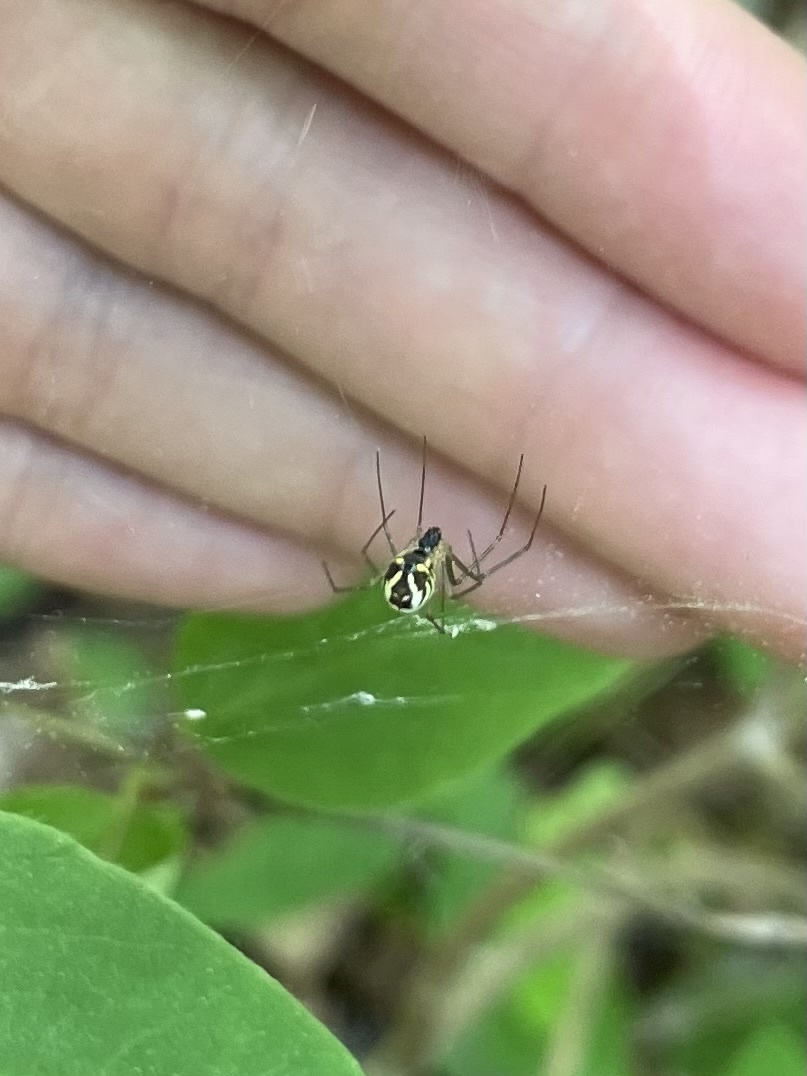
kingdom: Animalia
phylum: Arthropoda
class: Arachnida
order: Araneae
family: Linyphiidae
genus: Neriene
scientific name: Neriene radiata
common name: Filmy dome spider
